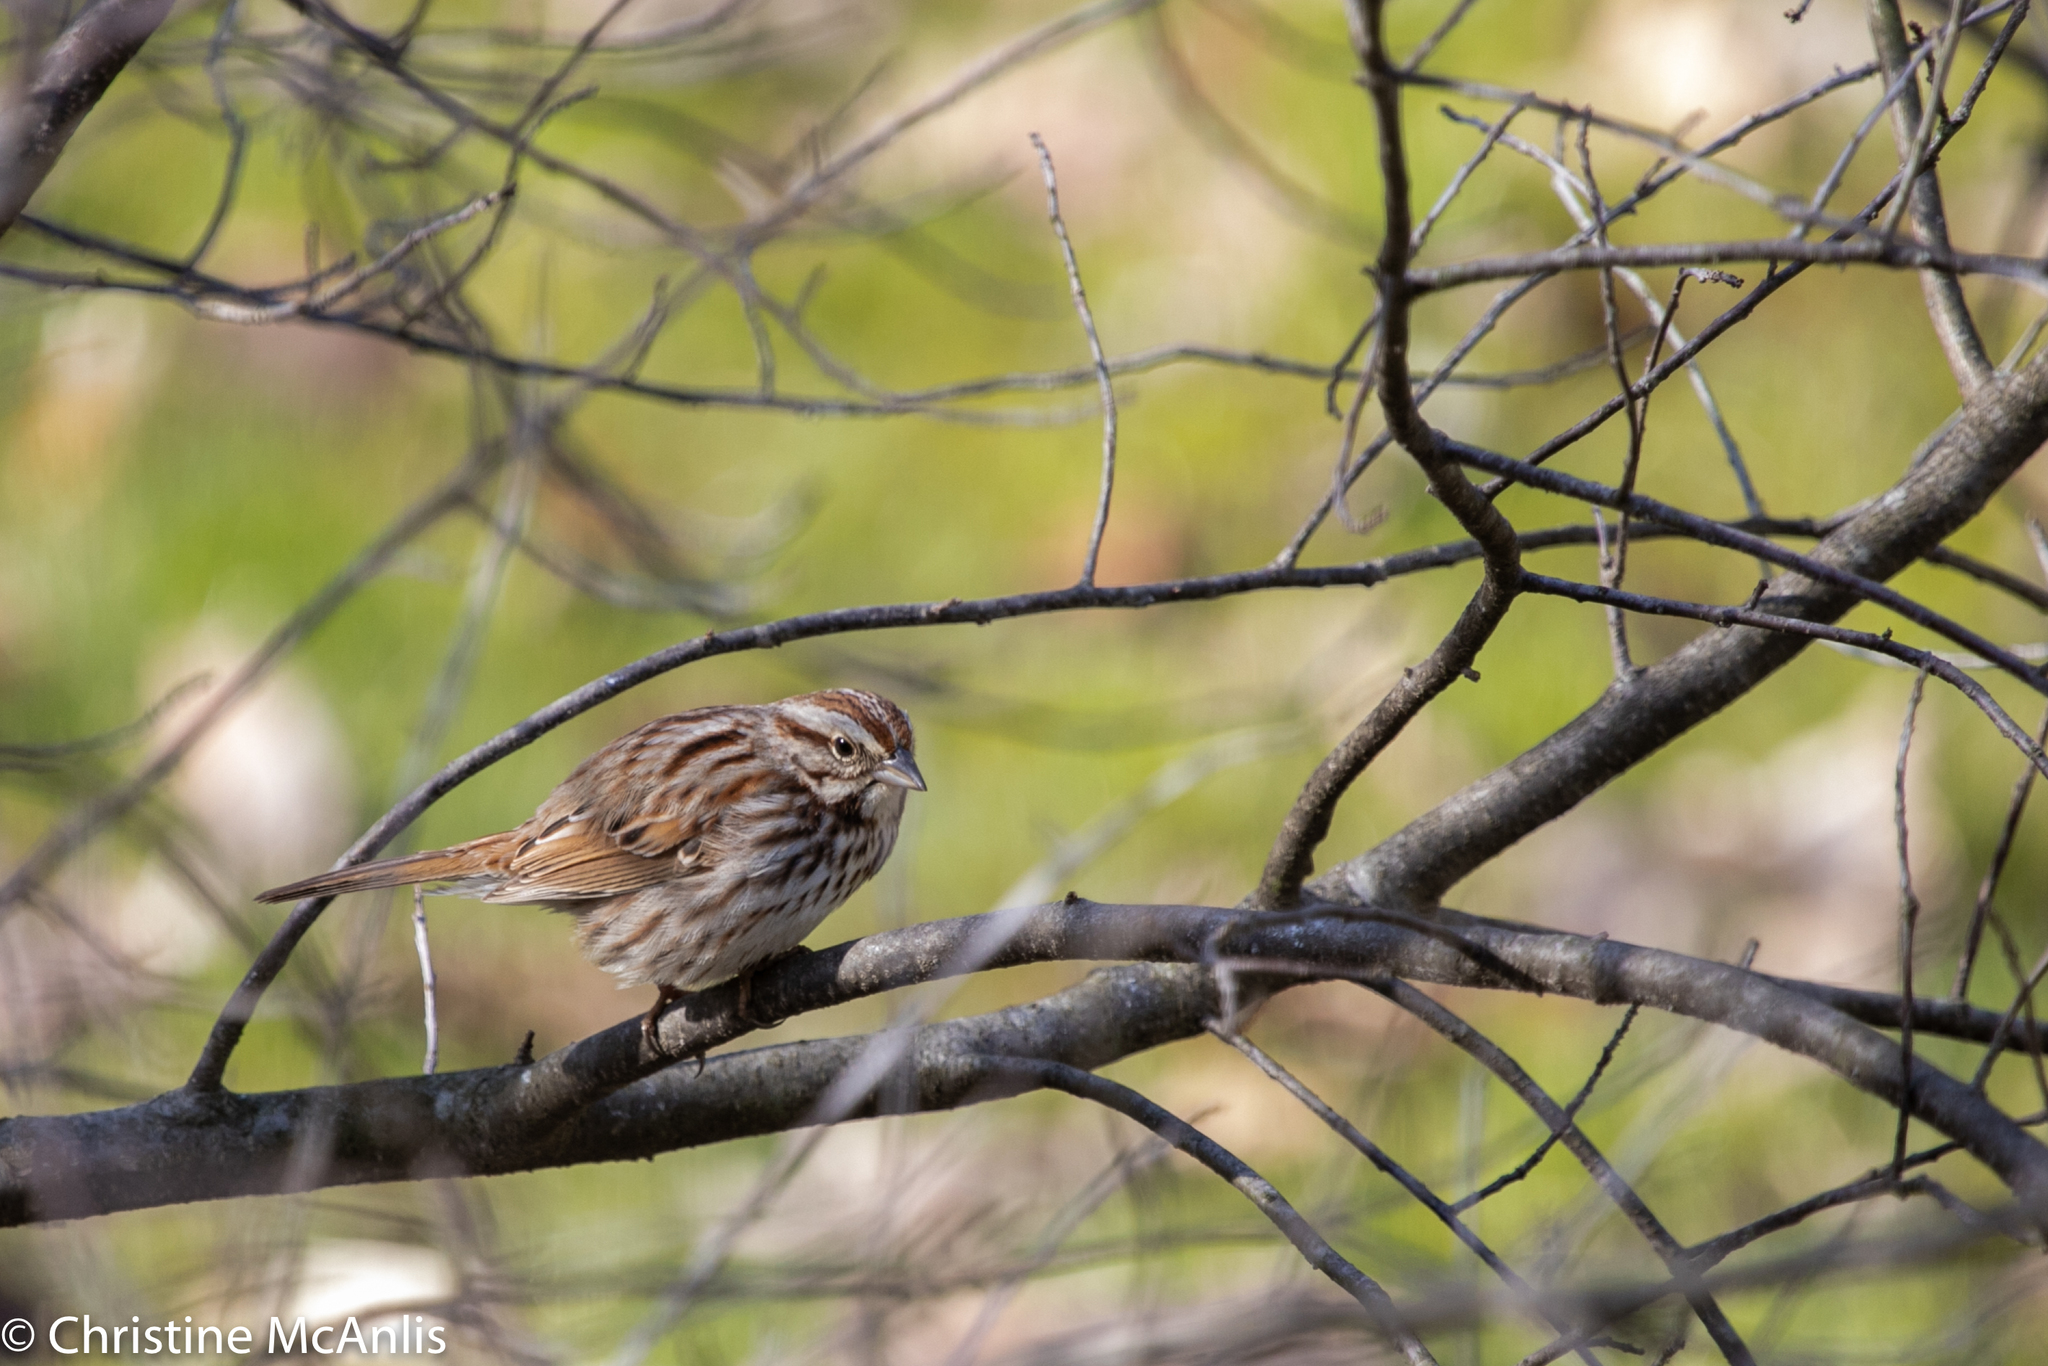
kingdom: Animalia
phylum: Chordata
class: Aves
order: Passeriformes
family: Passerellidae
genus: Melospiza
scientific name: Melospiza melodia
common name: Song sparrow
